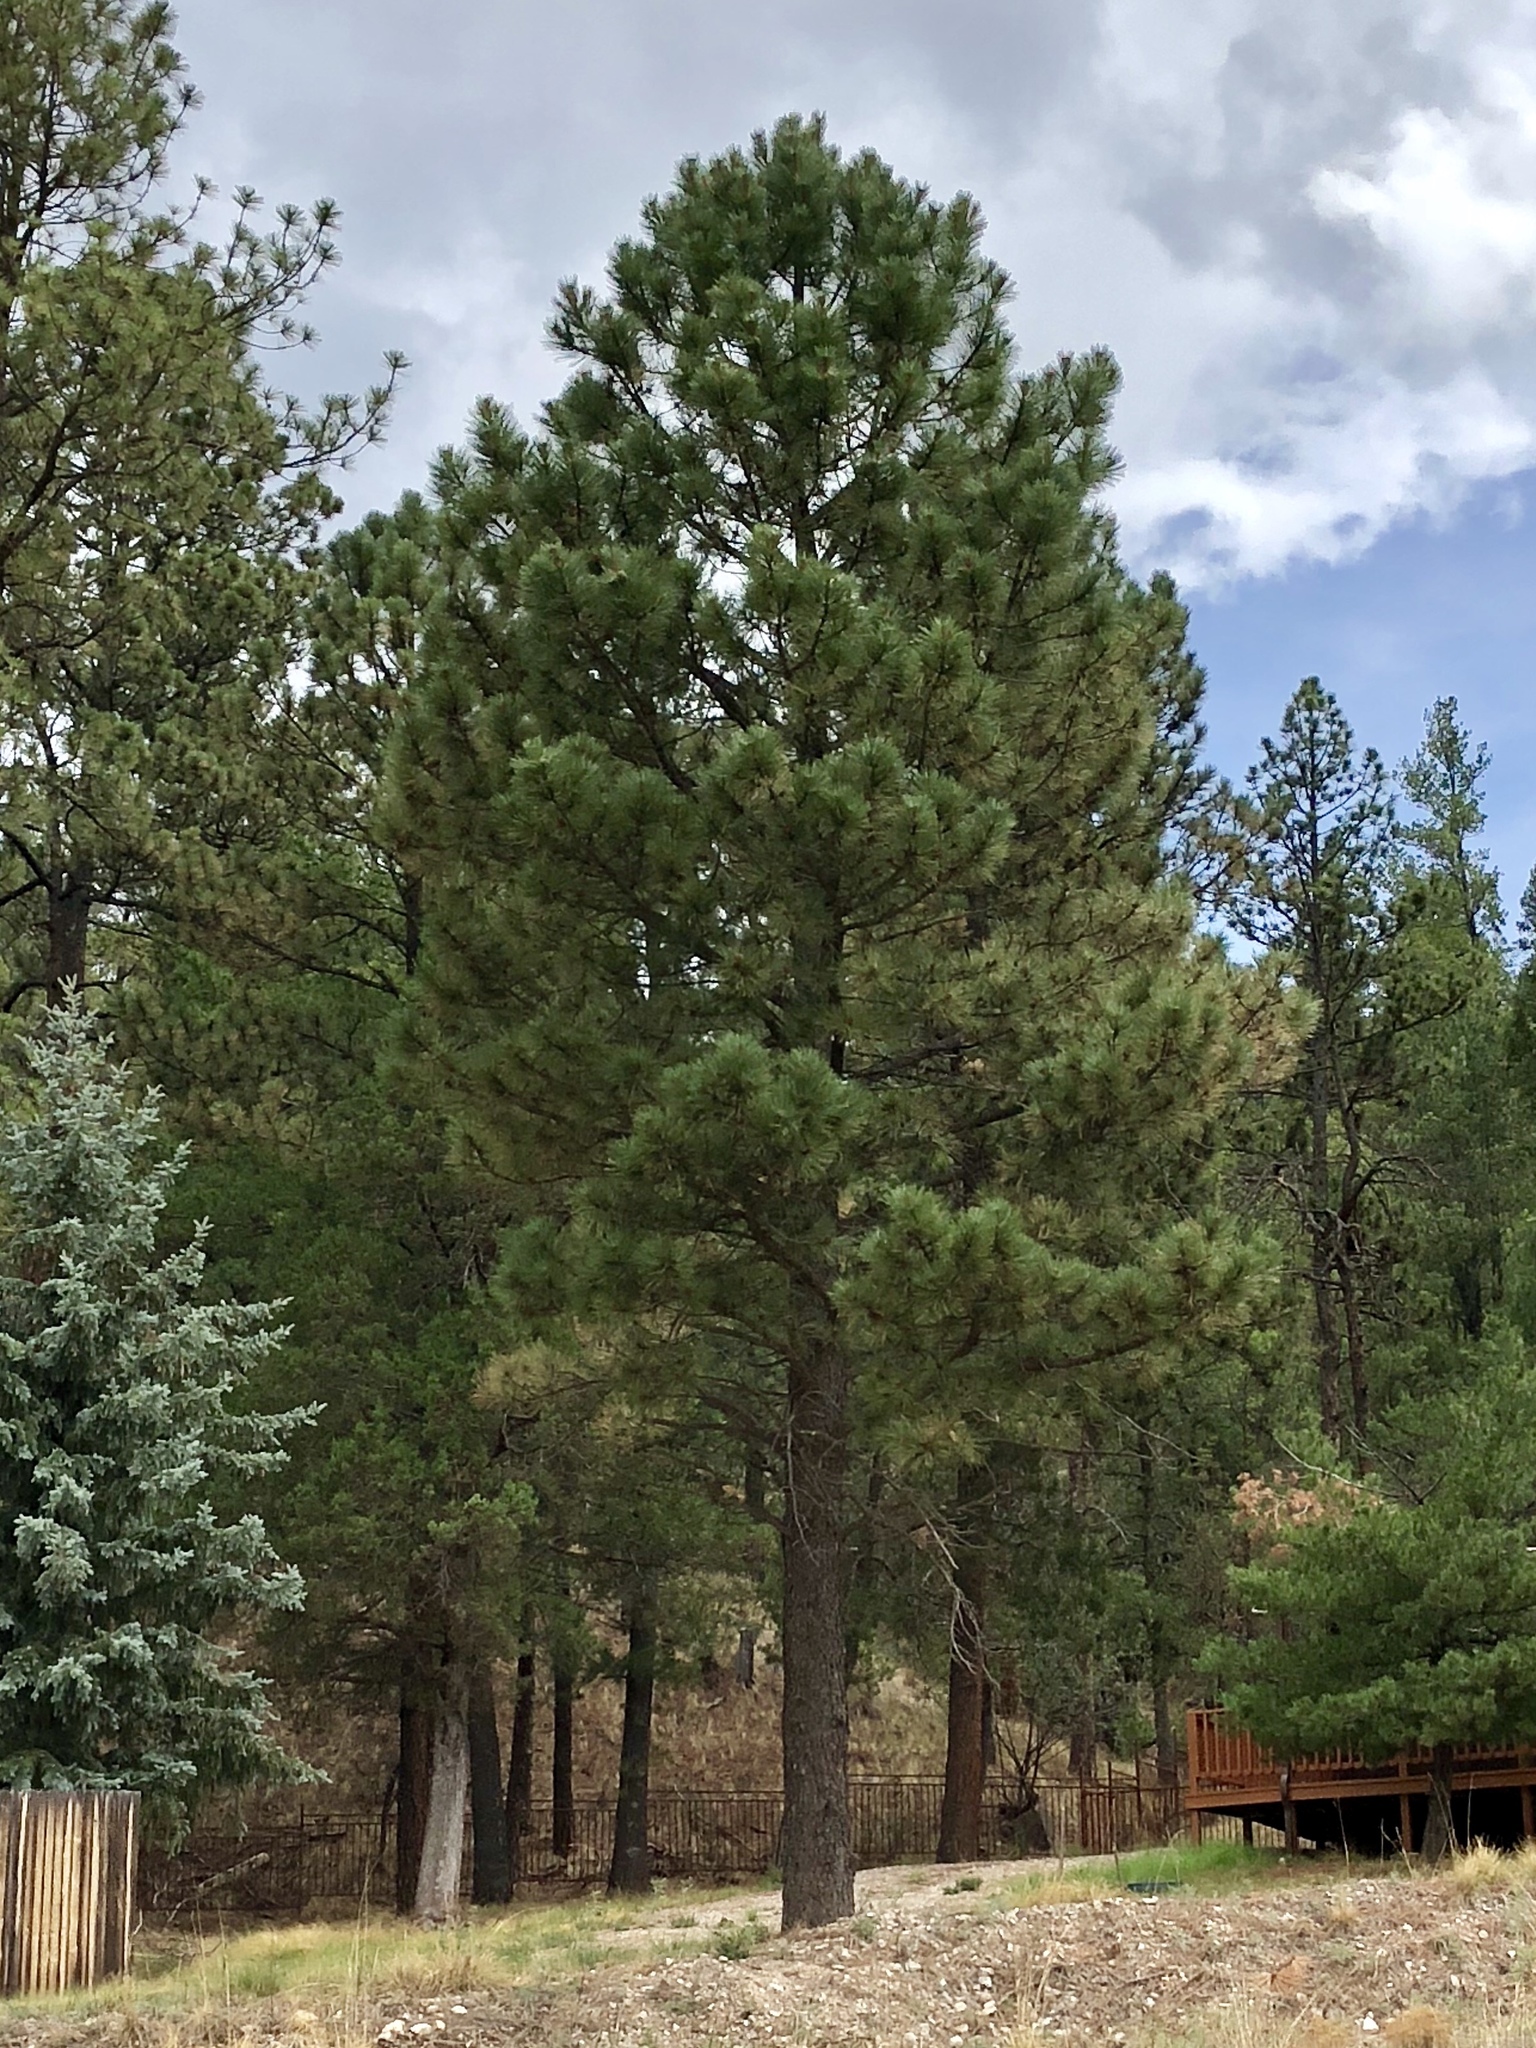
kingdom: Plantae
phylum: Tracheophyta
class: Pinopsida
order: Pinales
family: Pinaceae
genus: Pinus
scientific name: Pinus ponderosa
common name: Western yellow-pine
